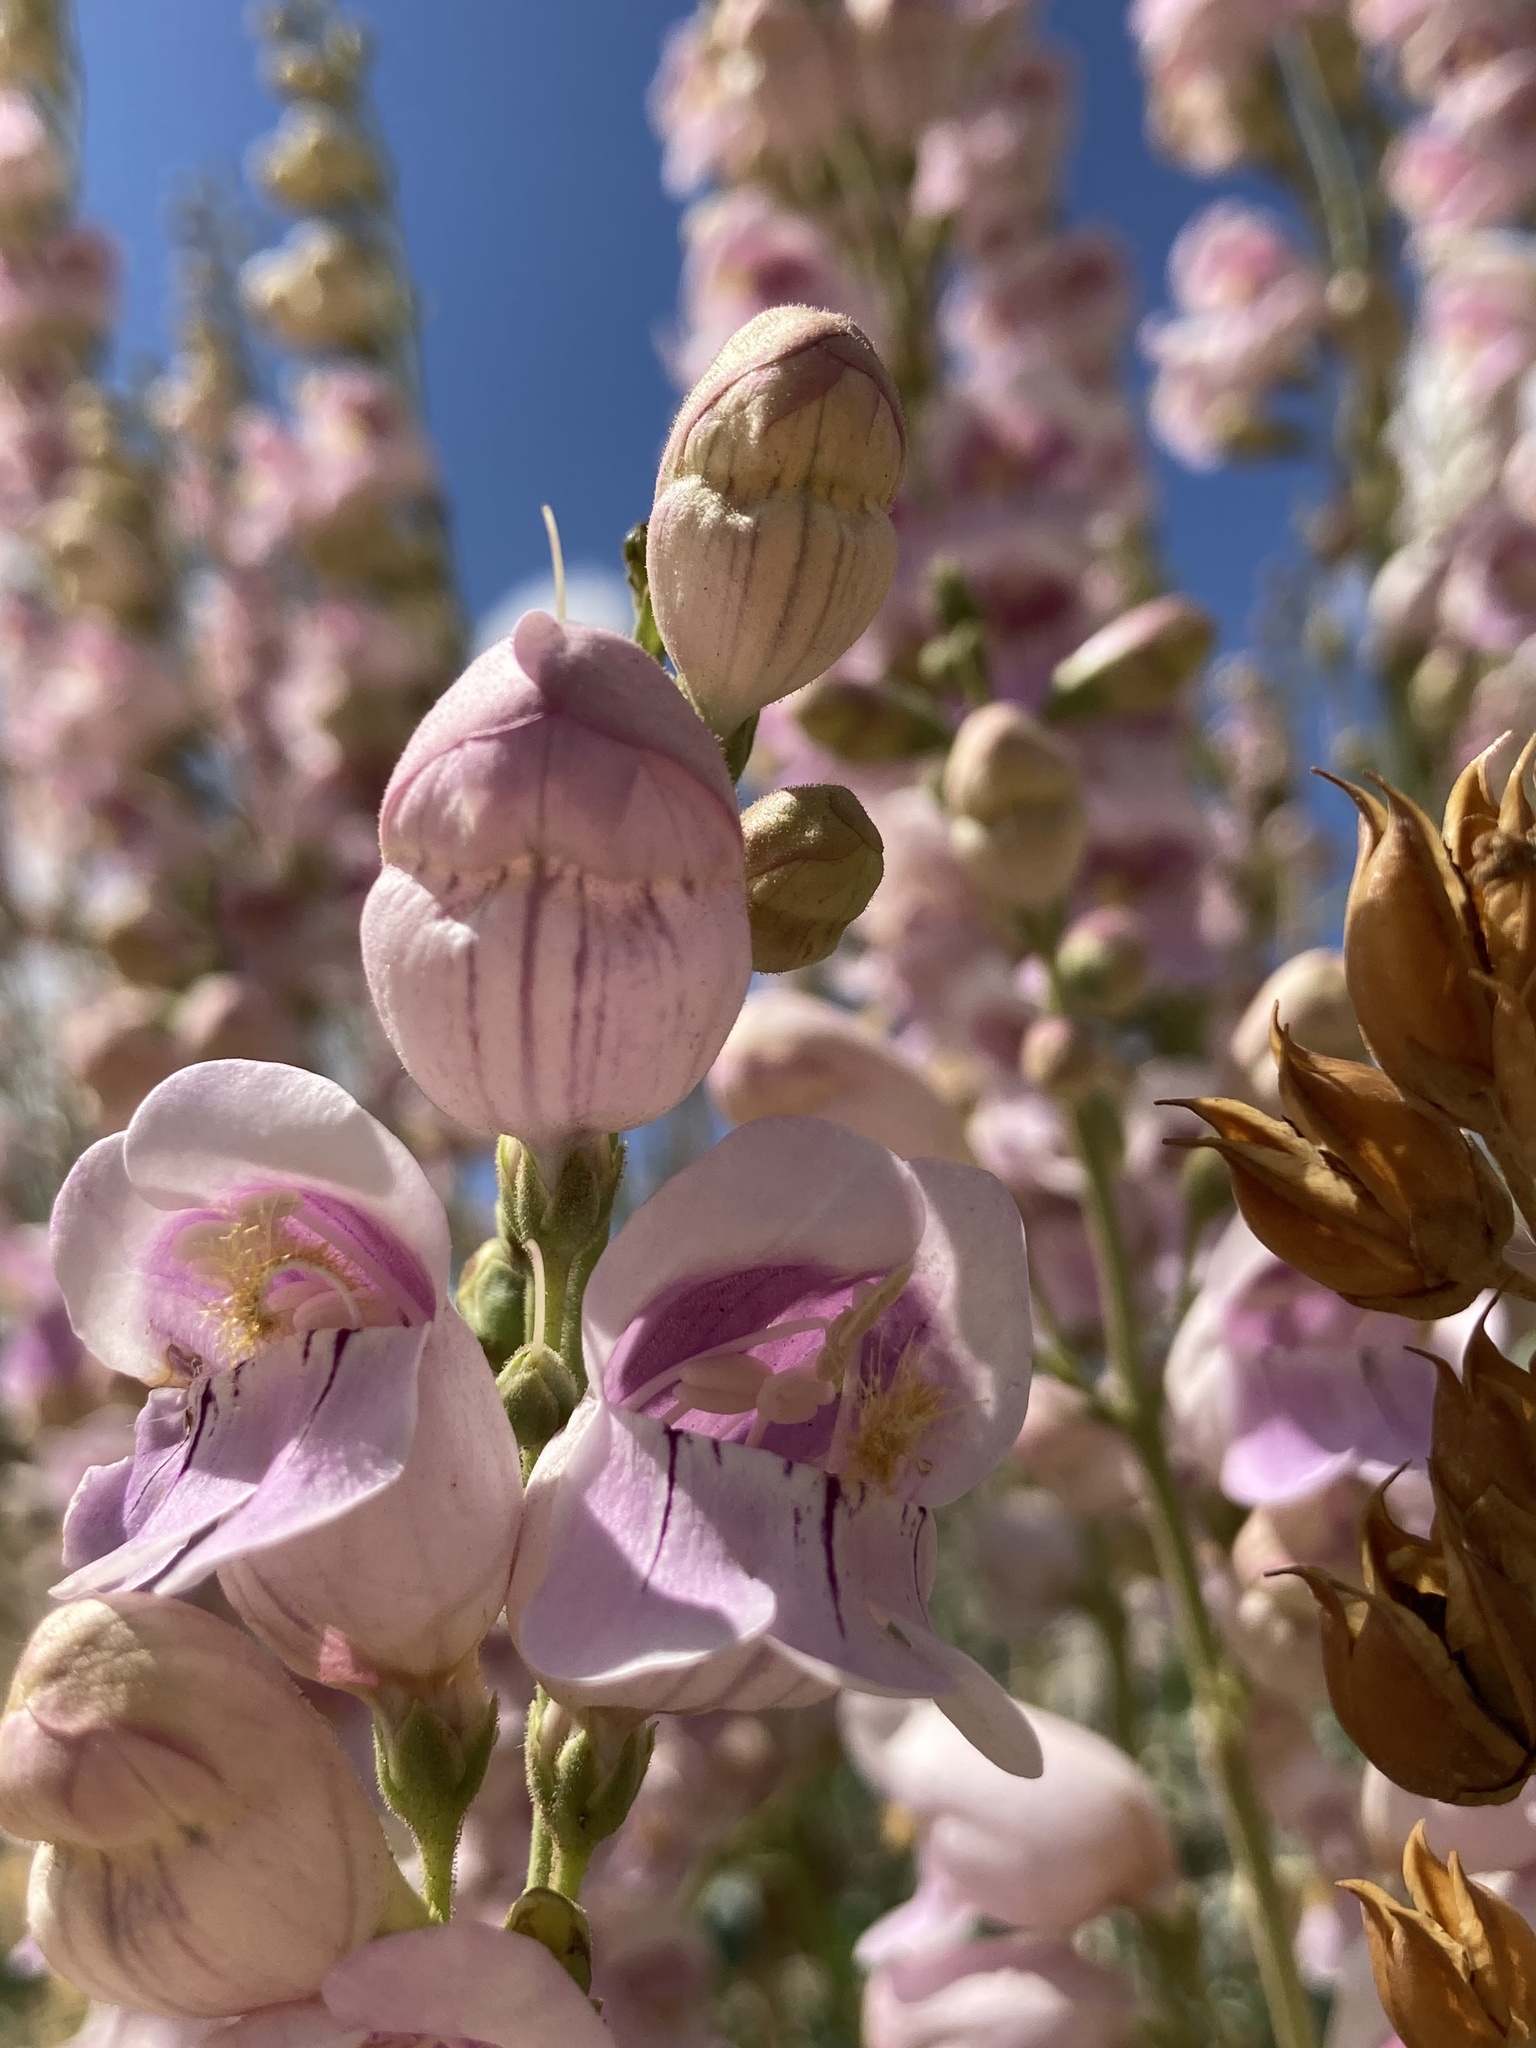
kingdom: Plantae
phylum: Tracheophyta
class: Magnoliopsida
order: Lamiales
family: Plantaginaceae
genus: Penstemon
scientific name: Penstemon palmeri
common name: Palmer penstemon
